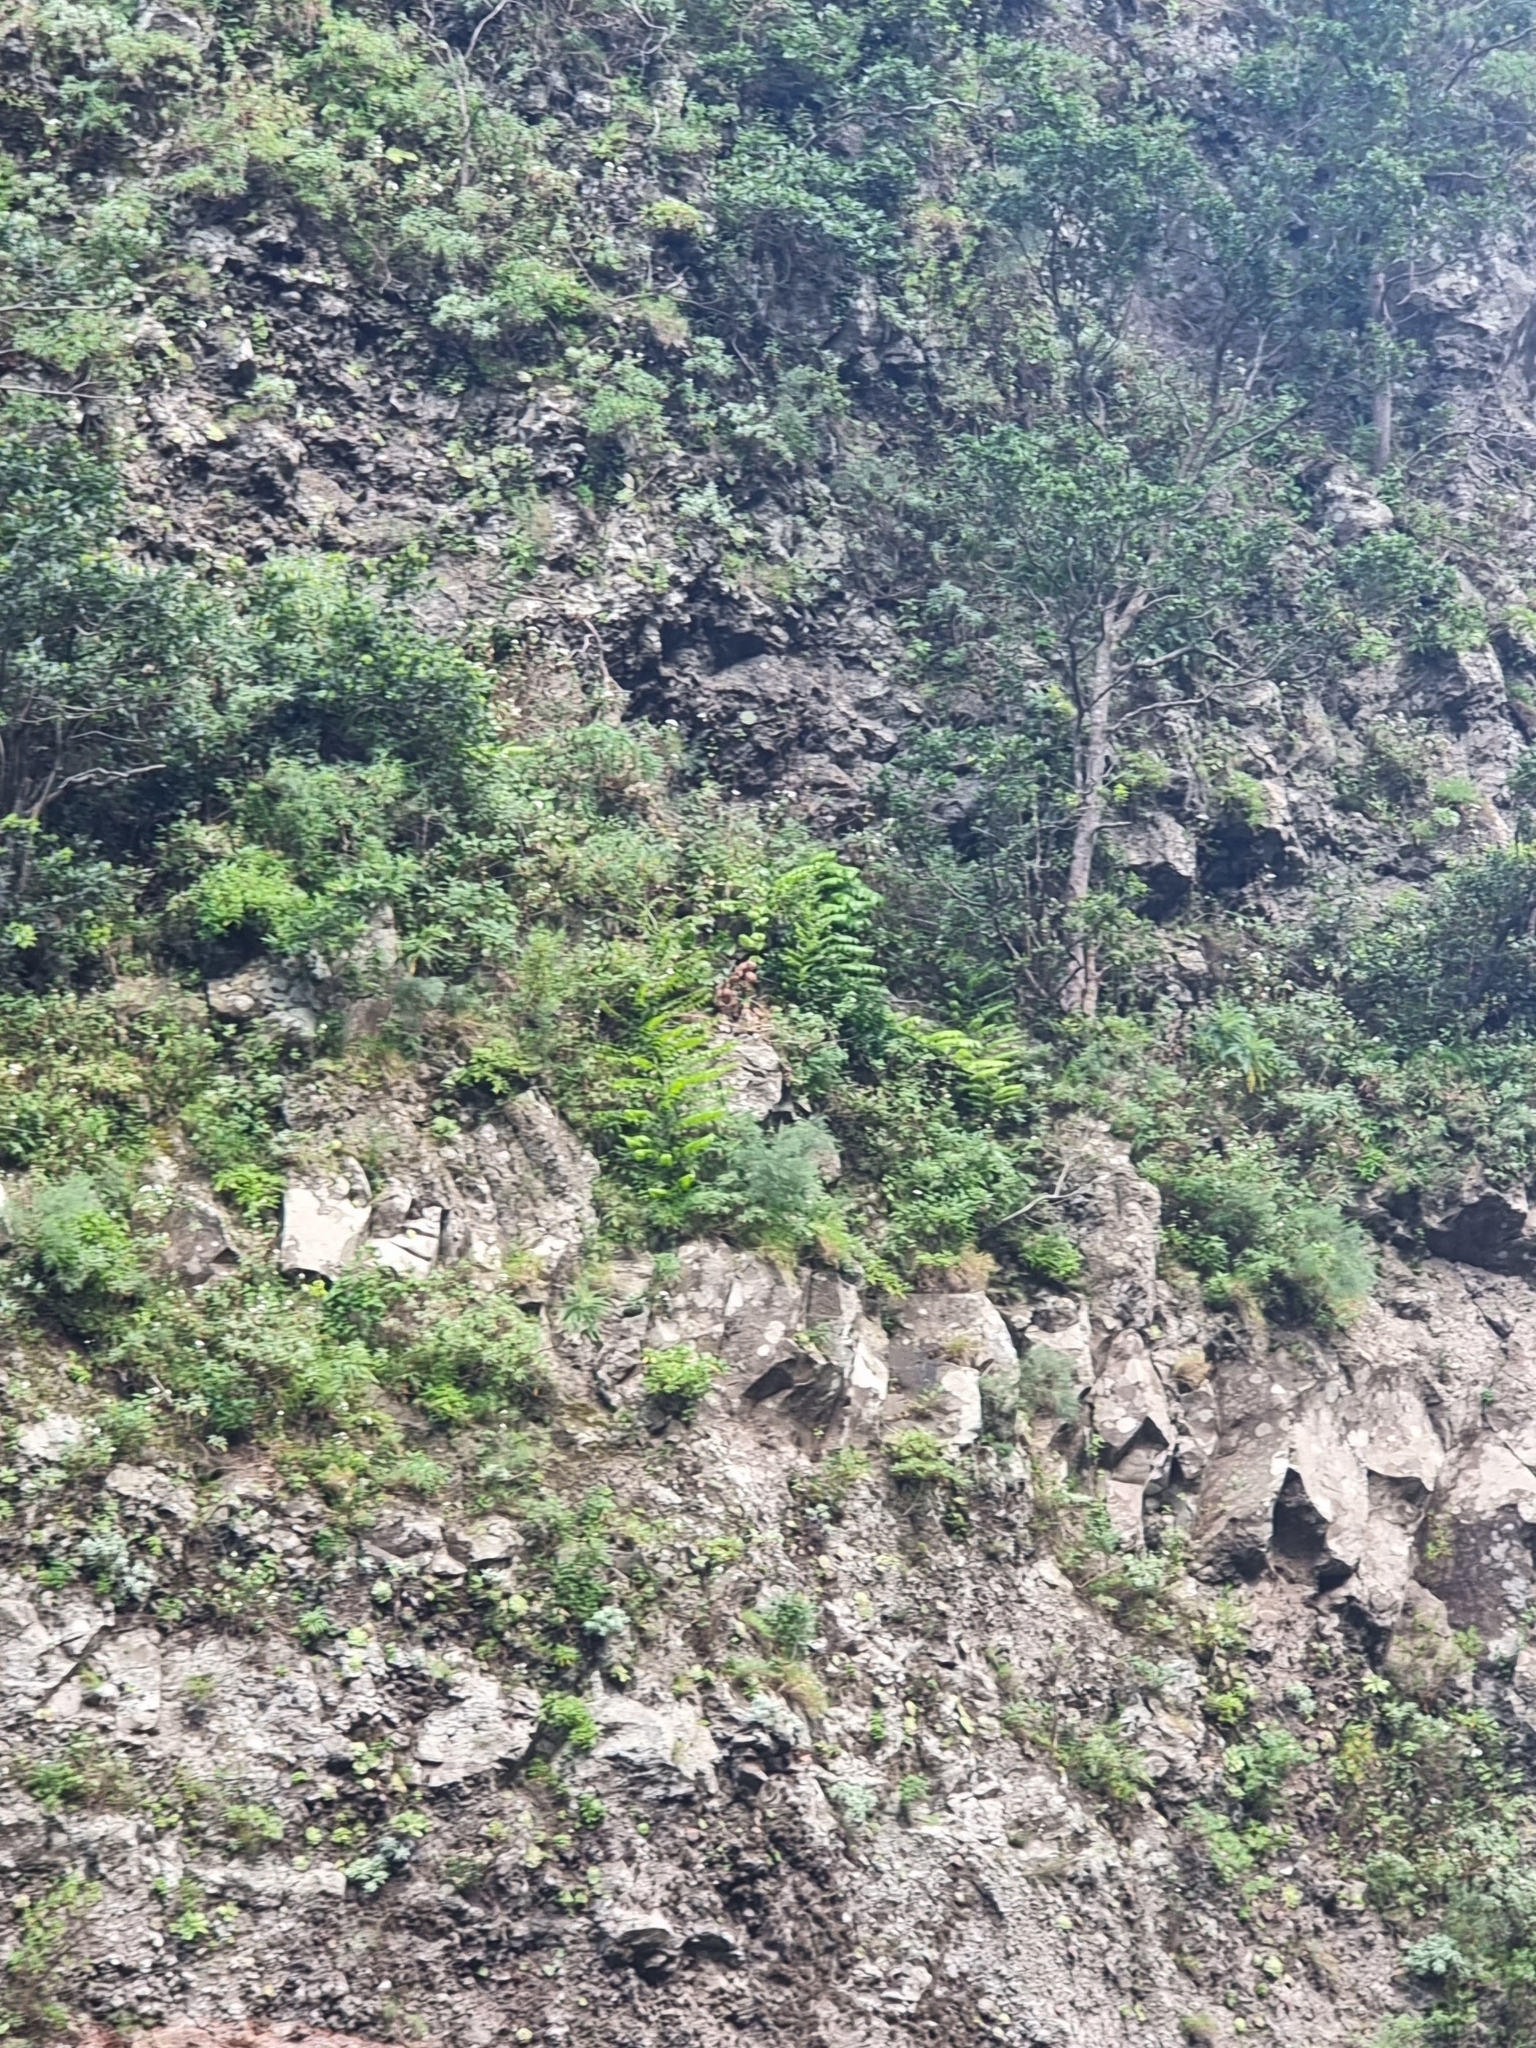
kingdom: Plantae
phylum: Tracheophyta
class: Liliopsida
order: Asparagales
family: Asparagaceae
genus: Semele
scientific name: Semele androgyna
